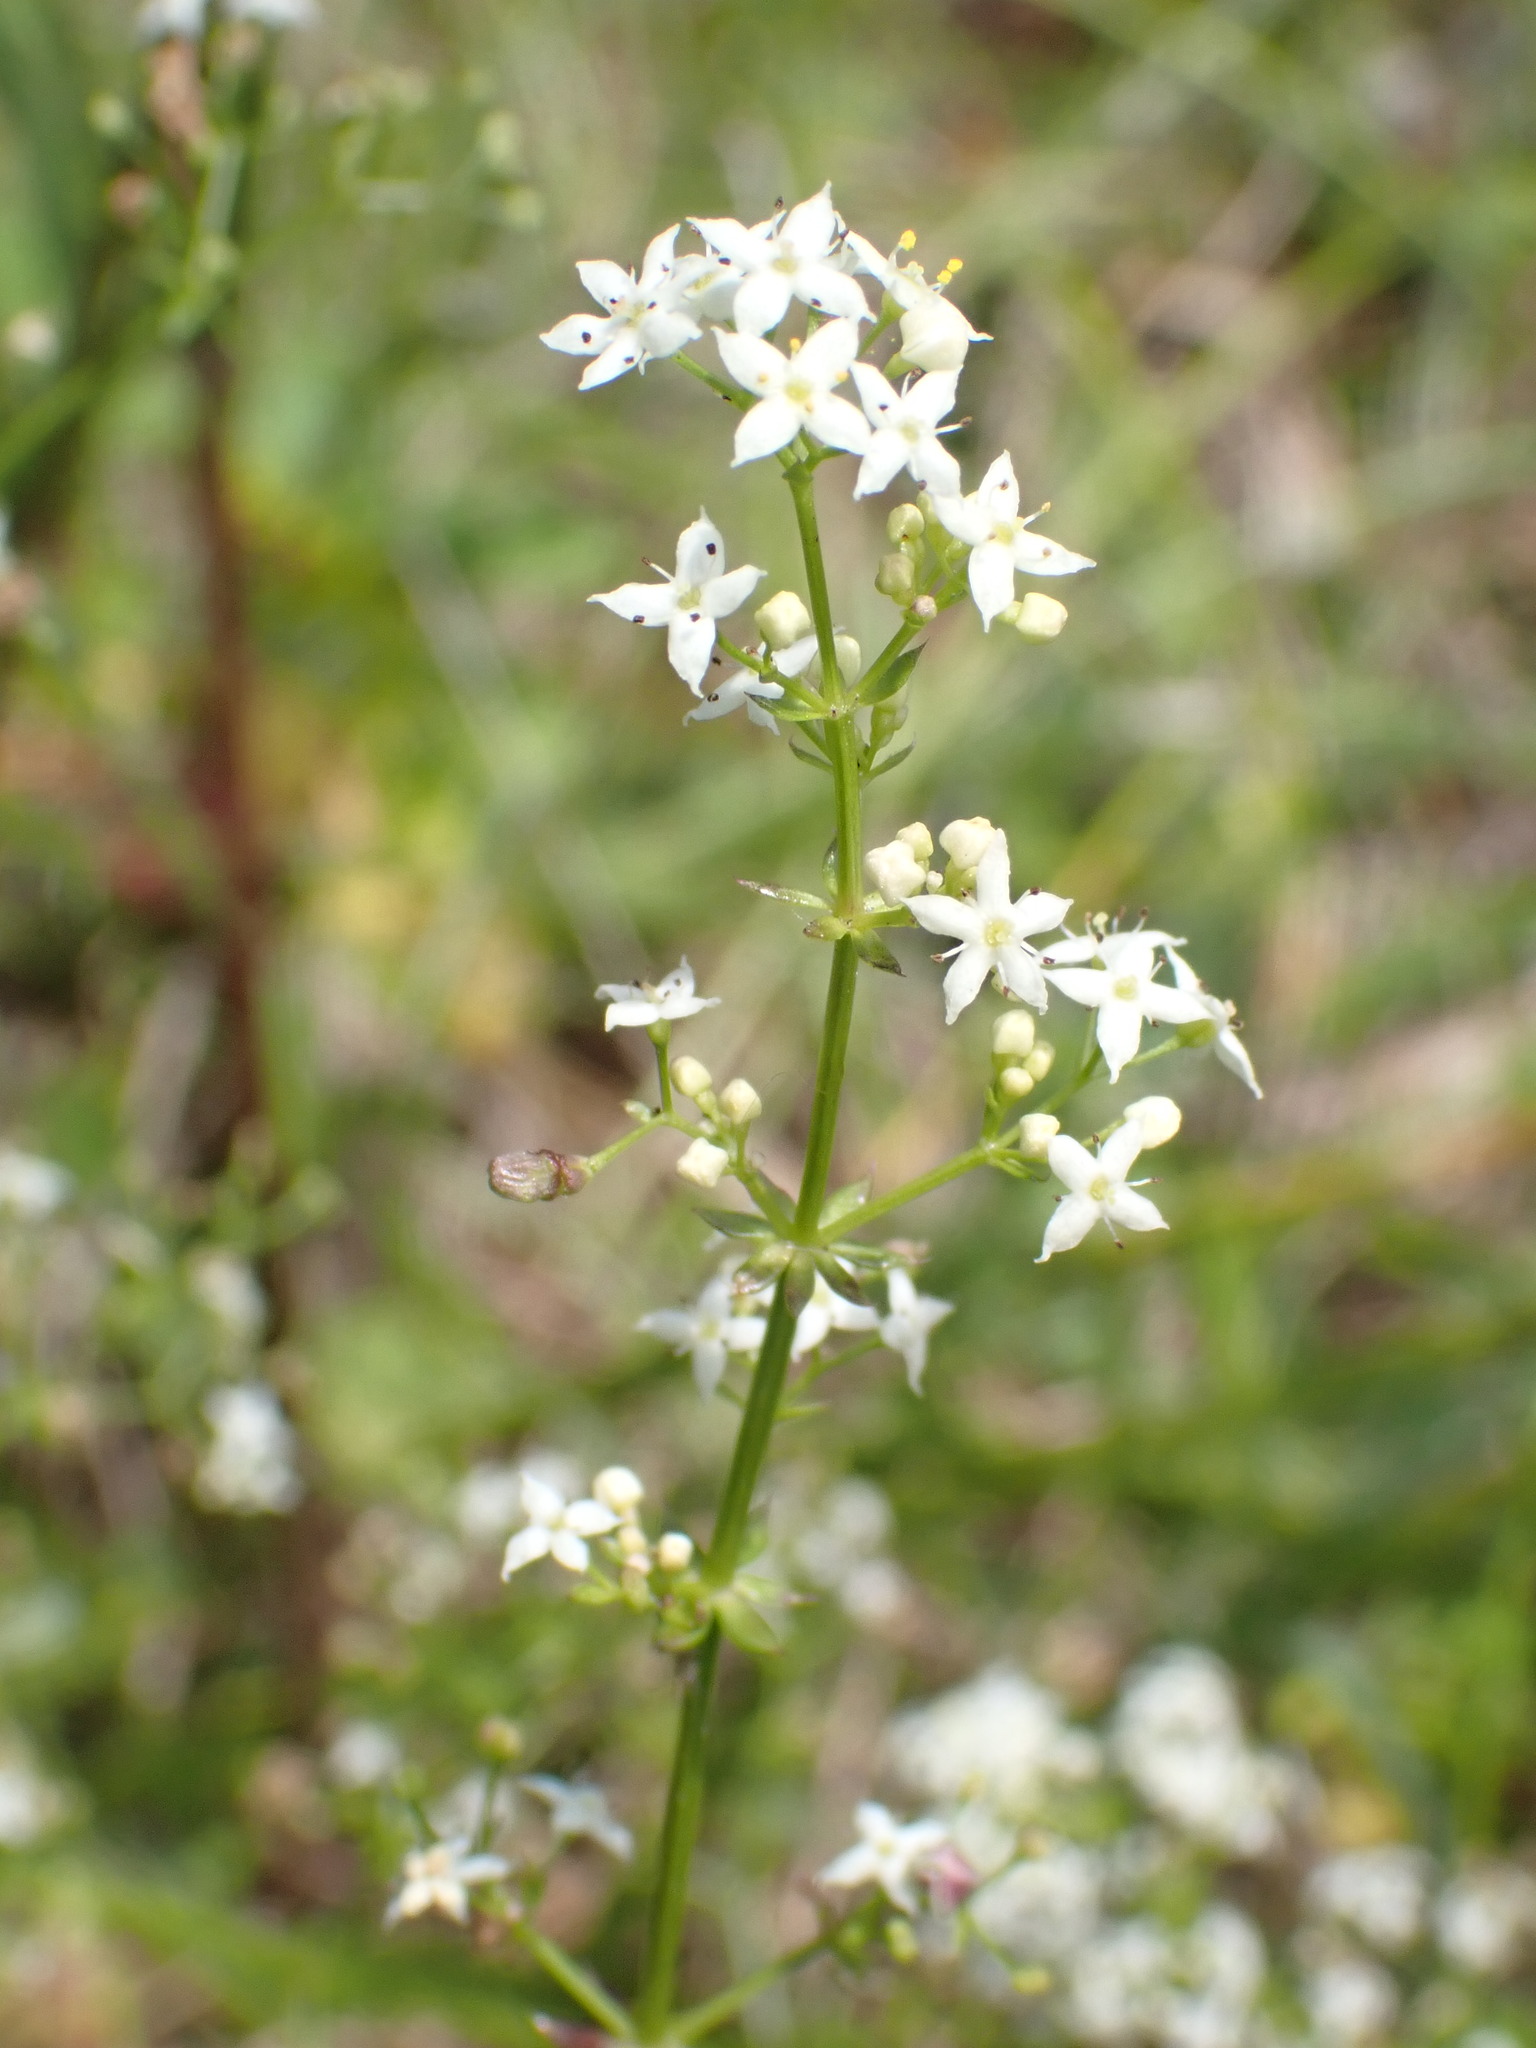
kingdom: Plantae
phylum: Tracheophyta
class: Magnoliopsida
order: Gentianales
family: Rubiaceae
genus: Galium
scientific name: Galium album
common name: White bedstraw
